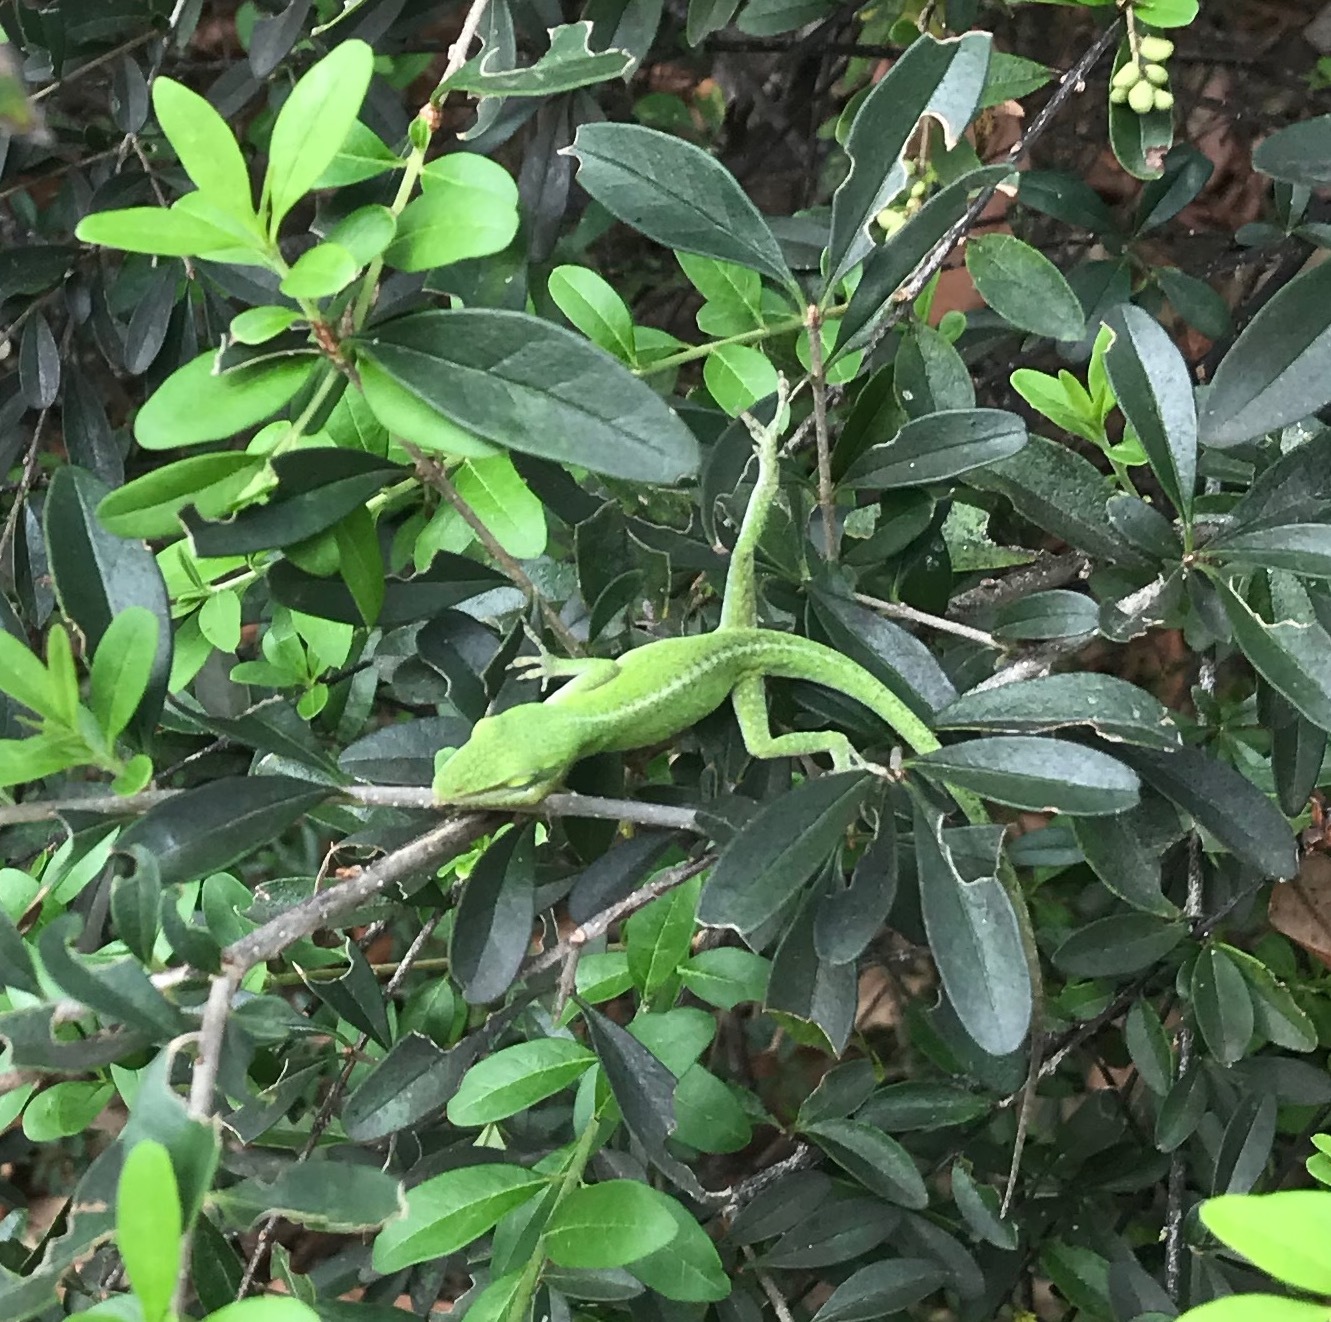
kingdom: Animalia
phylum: Chordata
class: Squamata
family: Dactyloidae
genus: Anolis
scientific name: Anolis carolinensis
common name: Green anole
